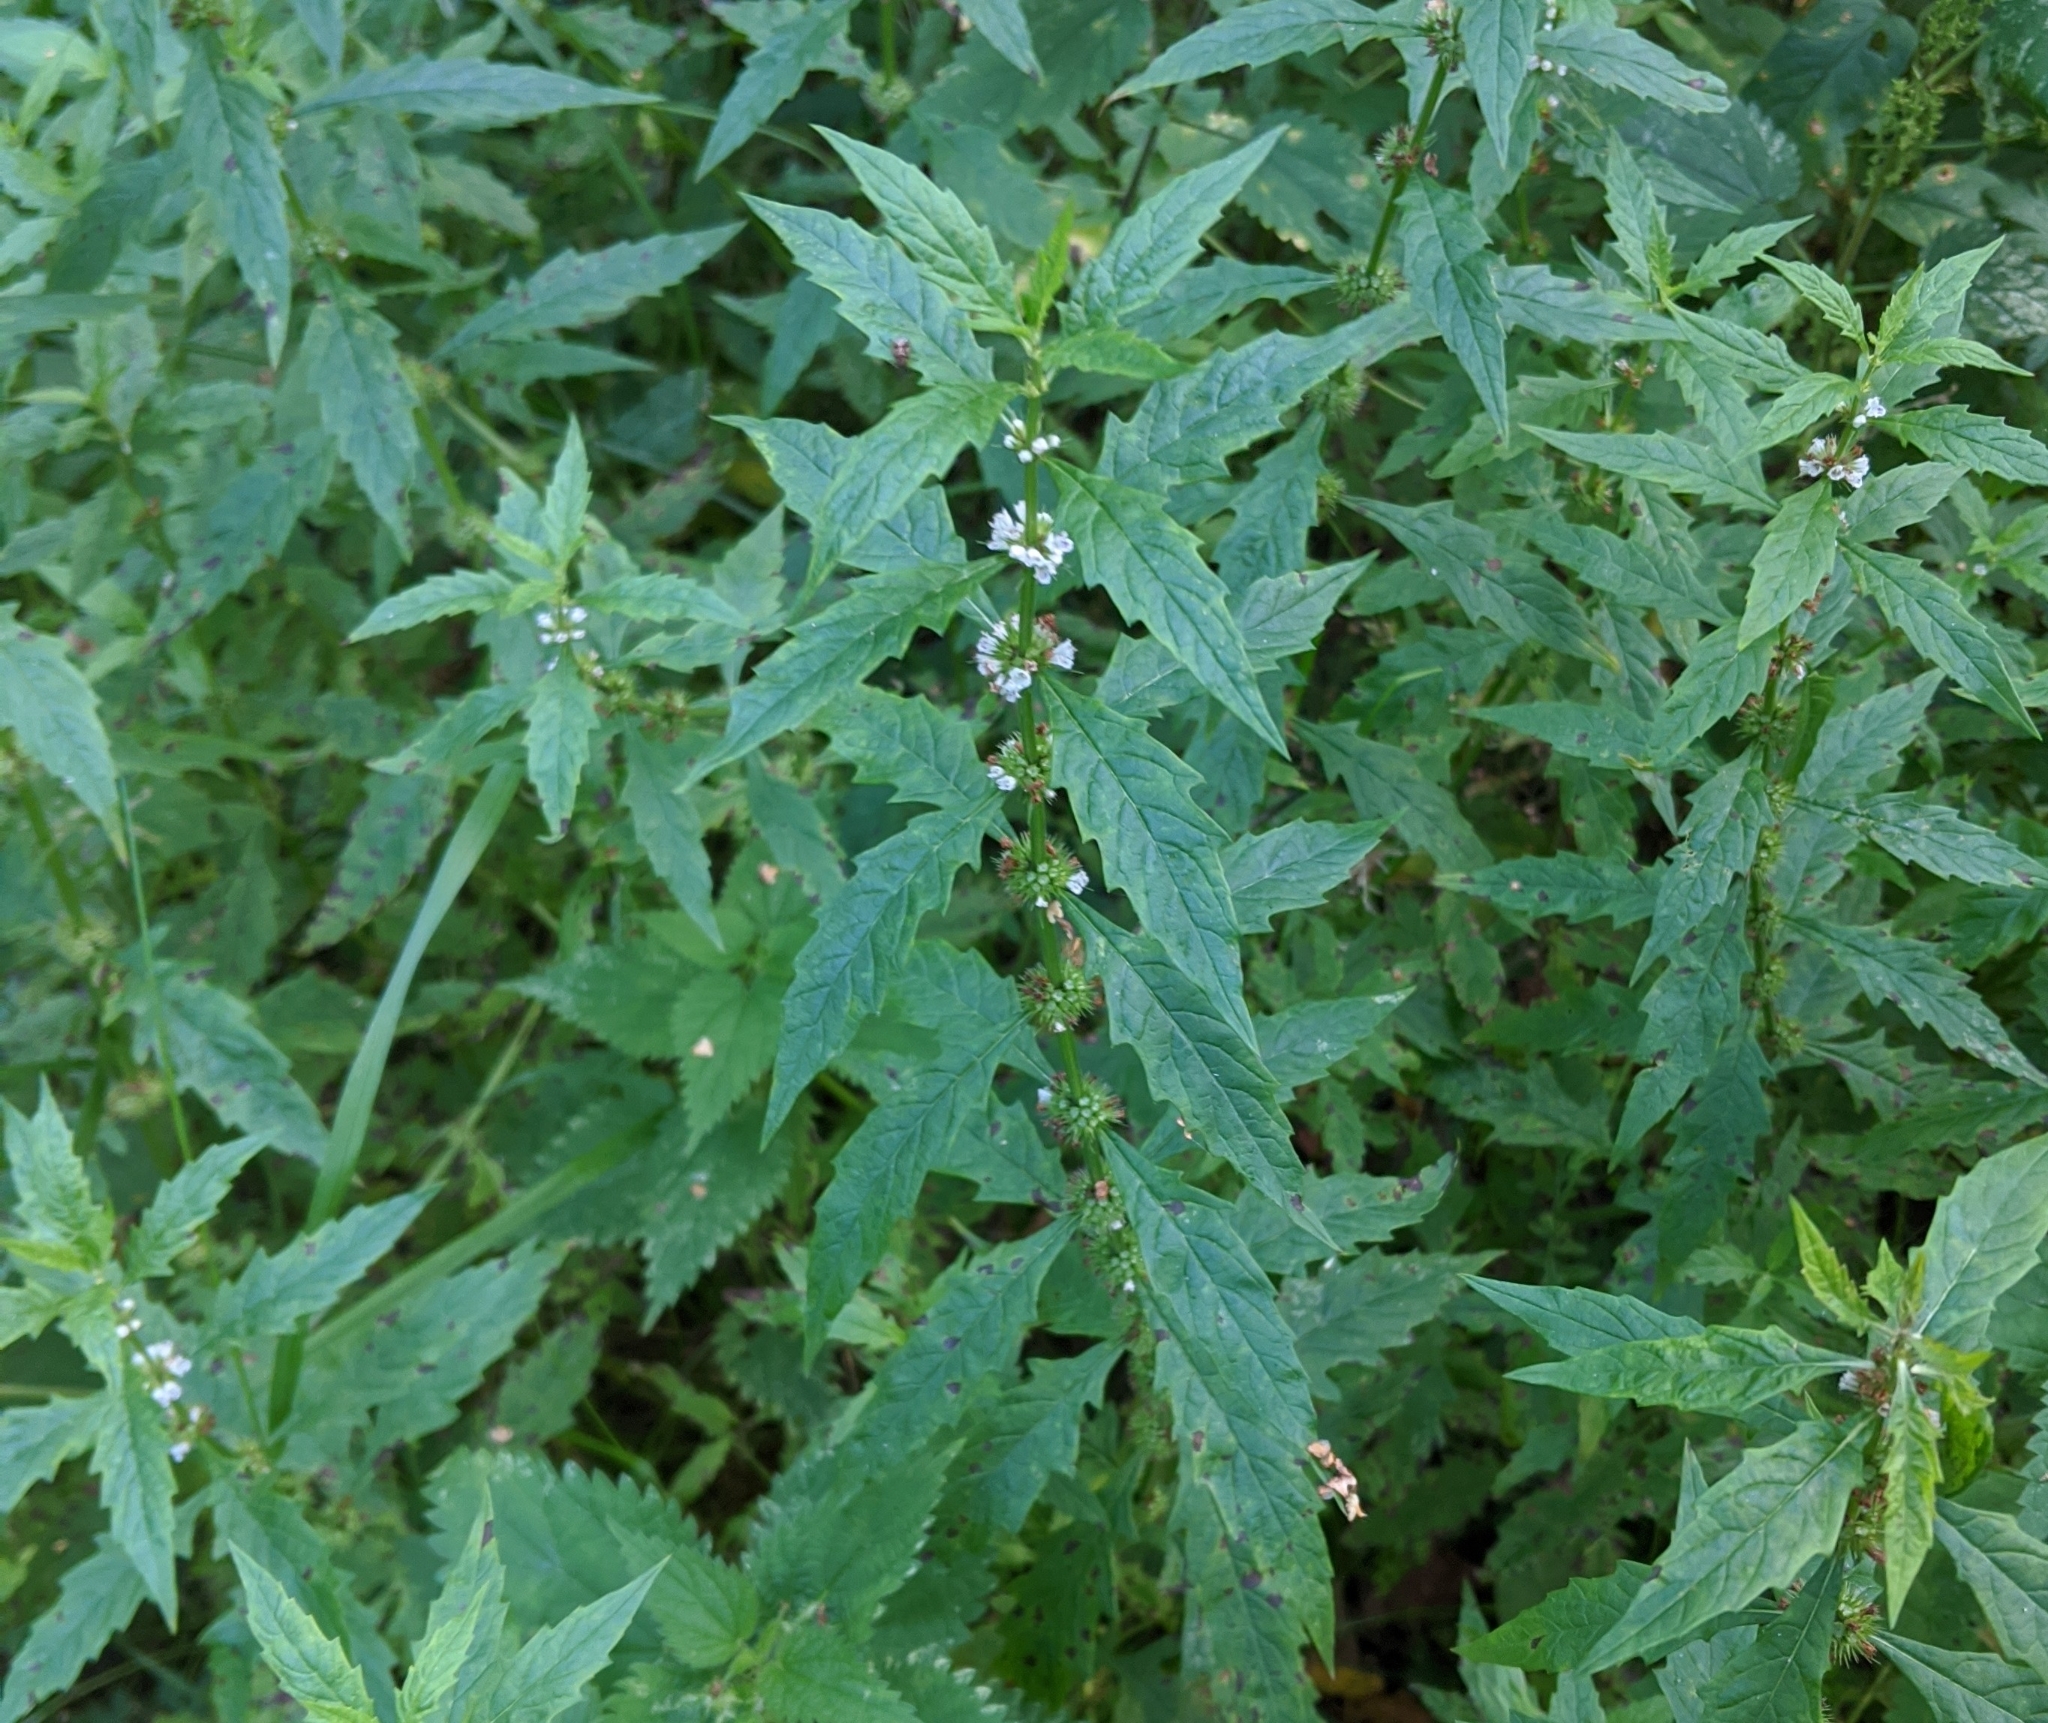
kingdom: Plantae
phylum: Tracheophyta
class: Magnoliopsida
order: Lamiales
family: Lamiaceae
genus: Lycopus
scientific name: Lycopus europaeus
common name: European bugleweed
